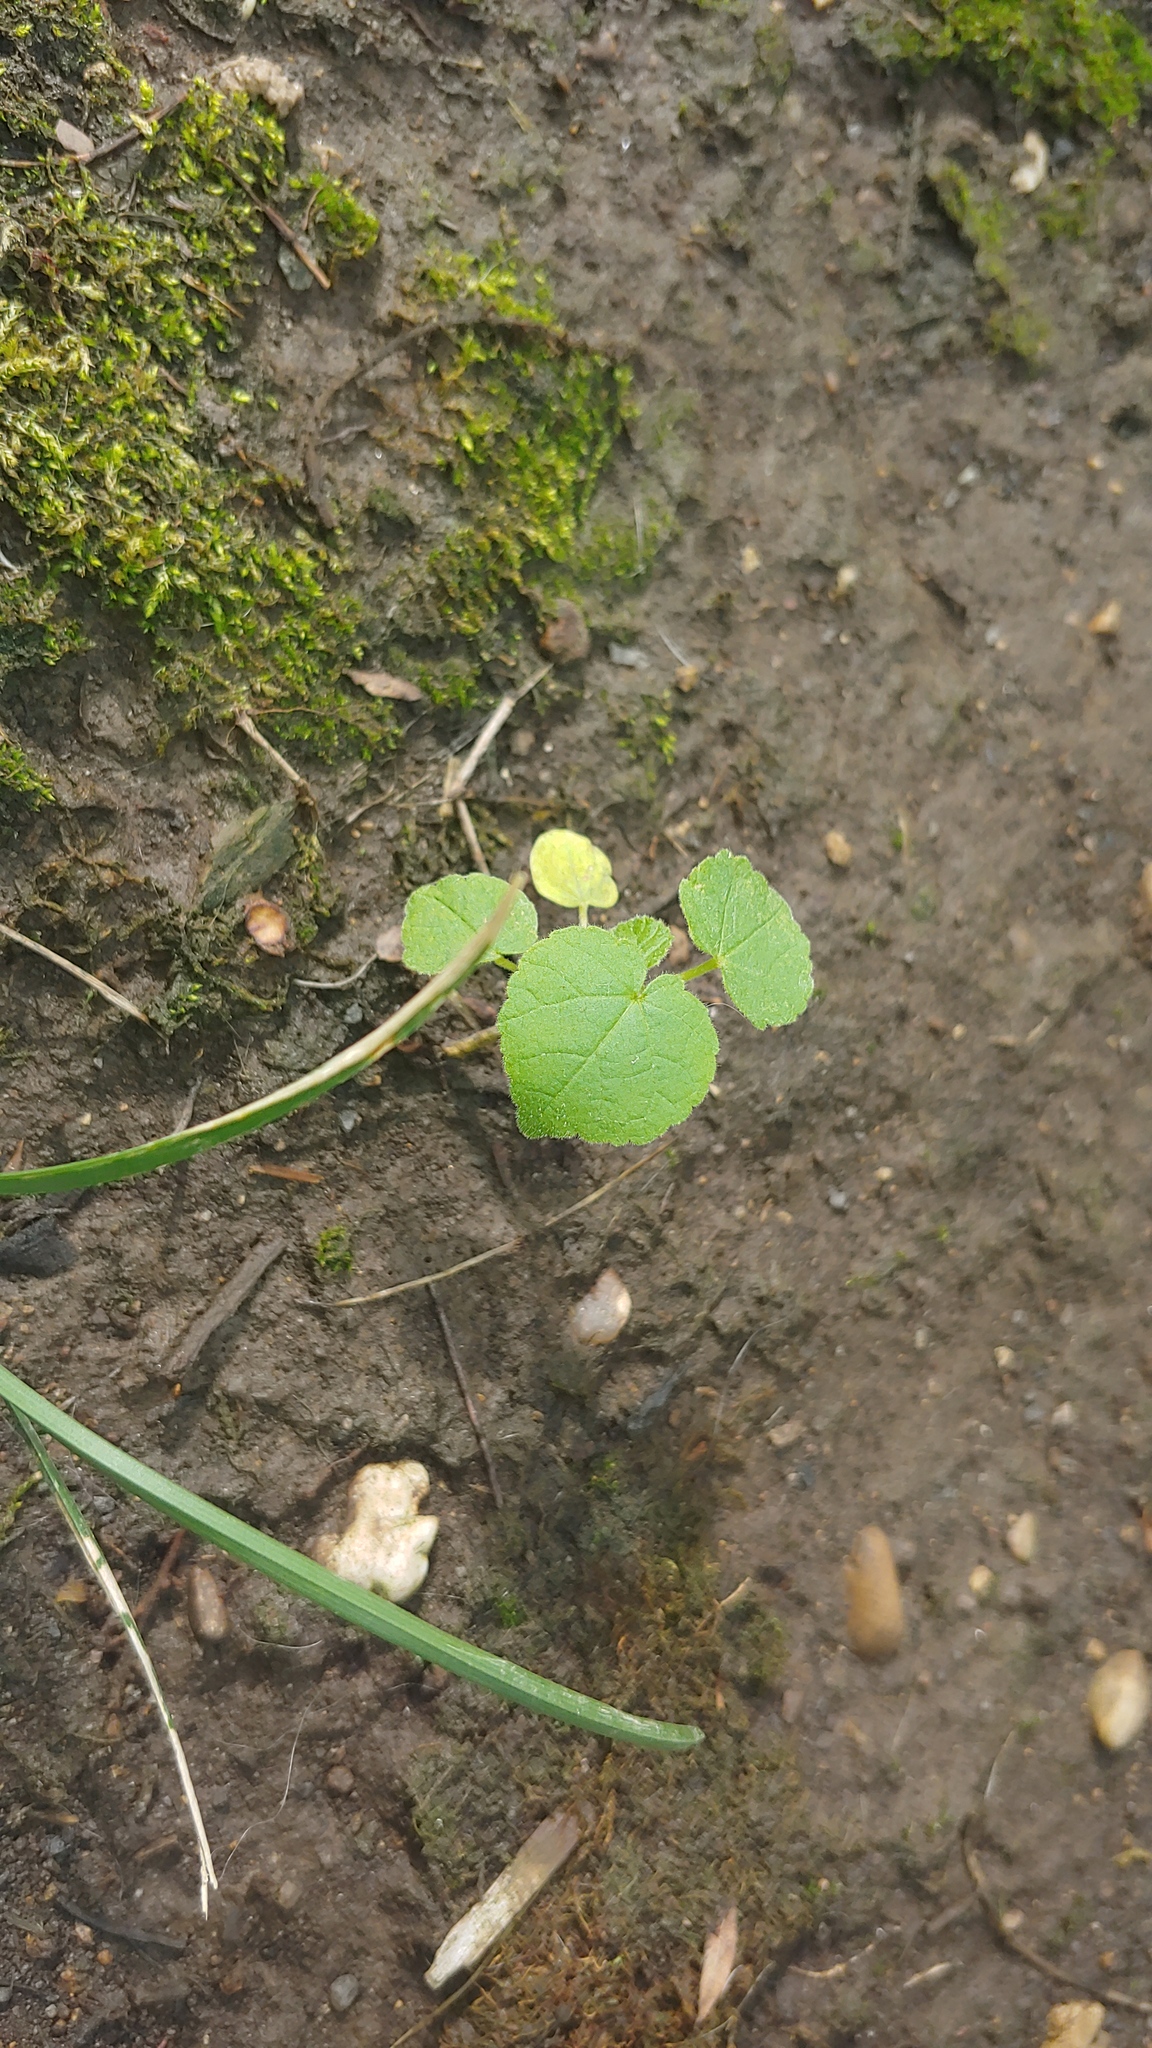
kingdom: Plantae
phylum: Tracheophyta
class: Magnoliopsida
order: Malvales
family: Malvaceae
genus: Abutilon
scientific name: Abutilon theophrasti
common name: Velvetleaf
